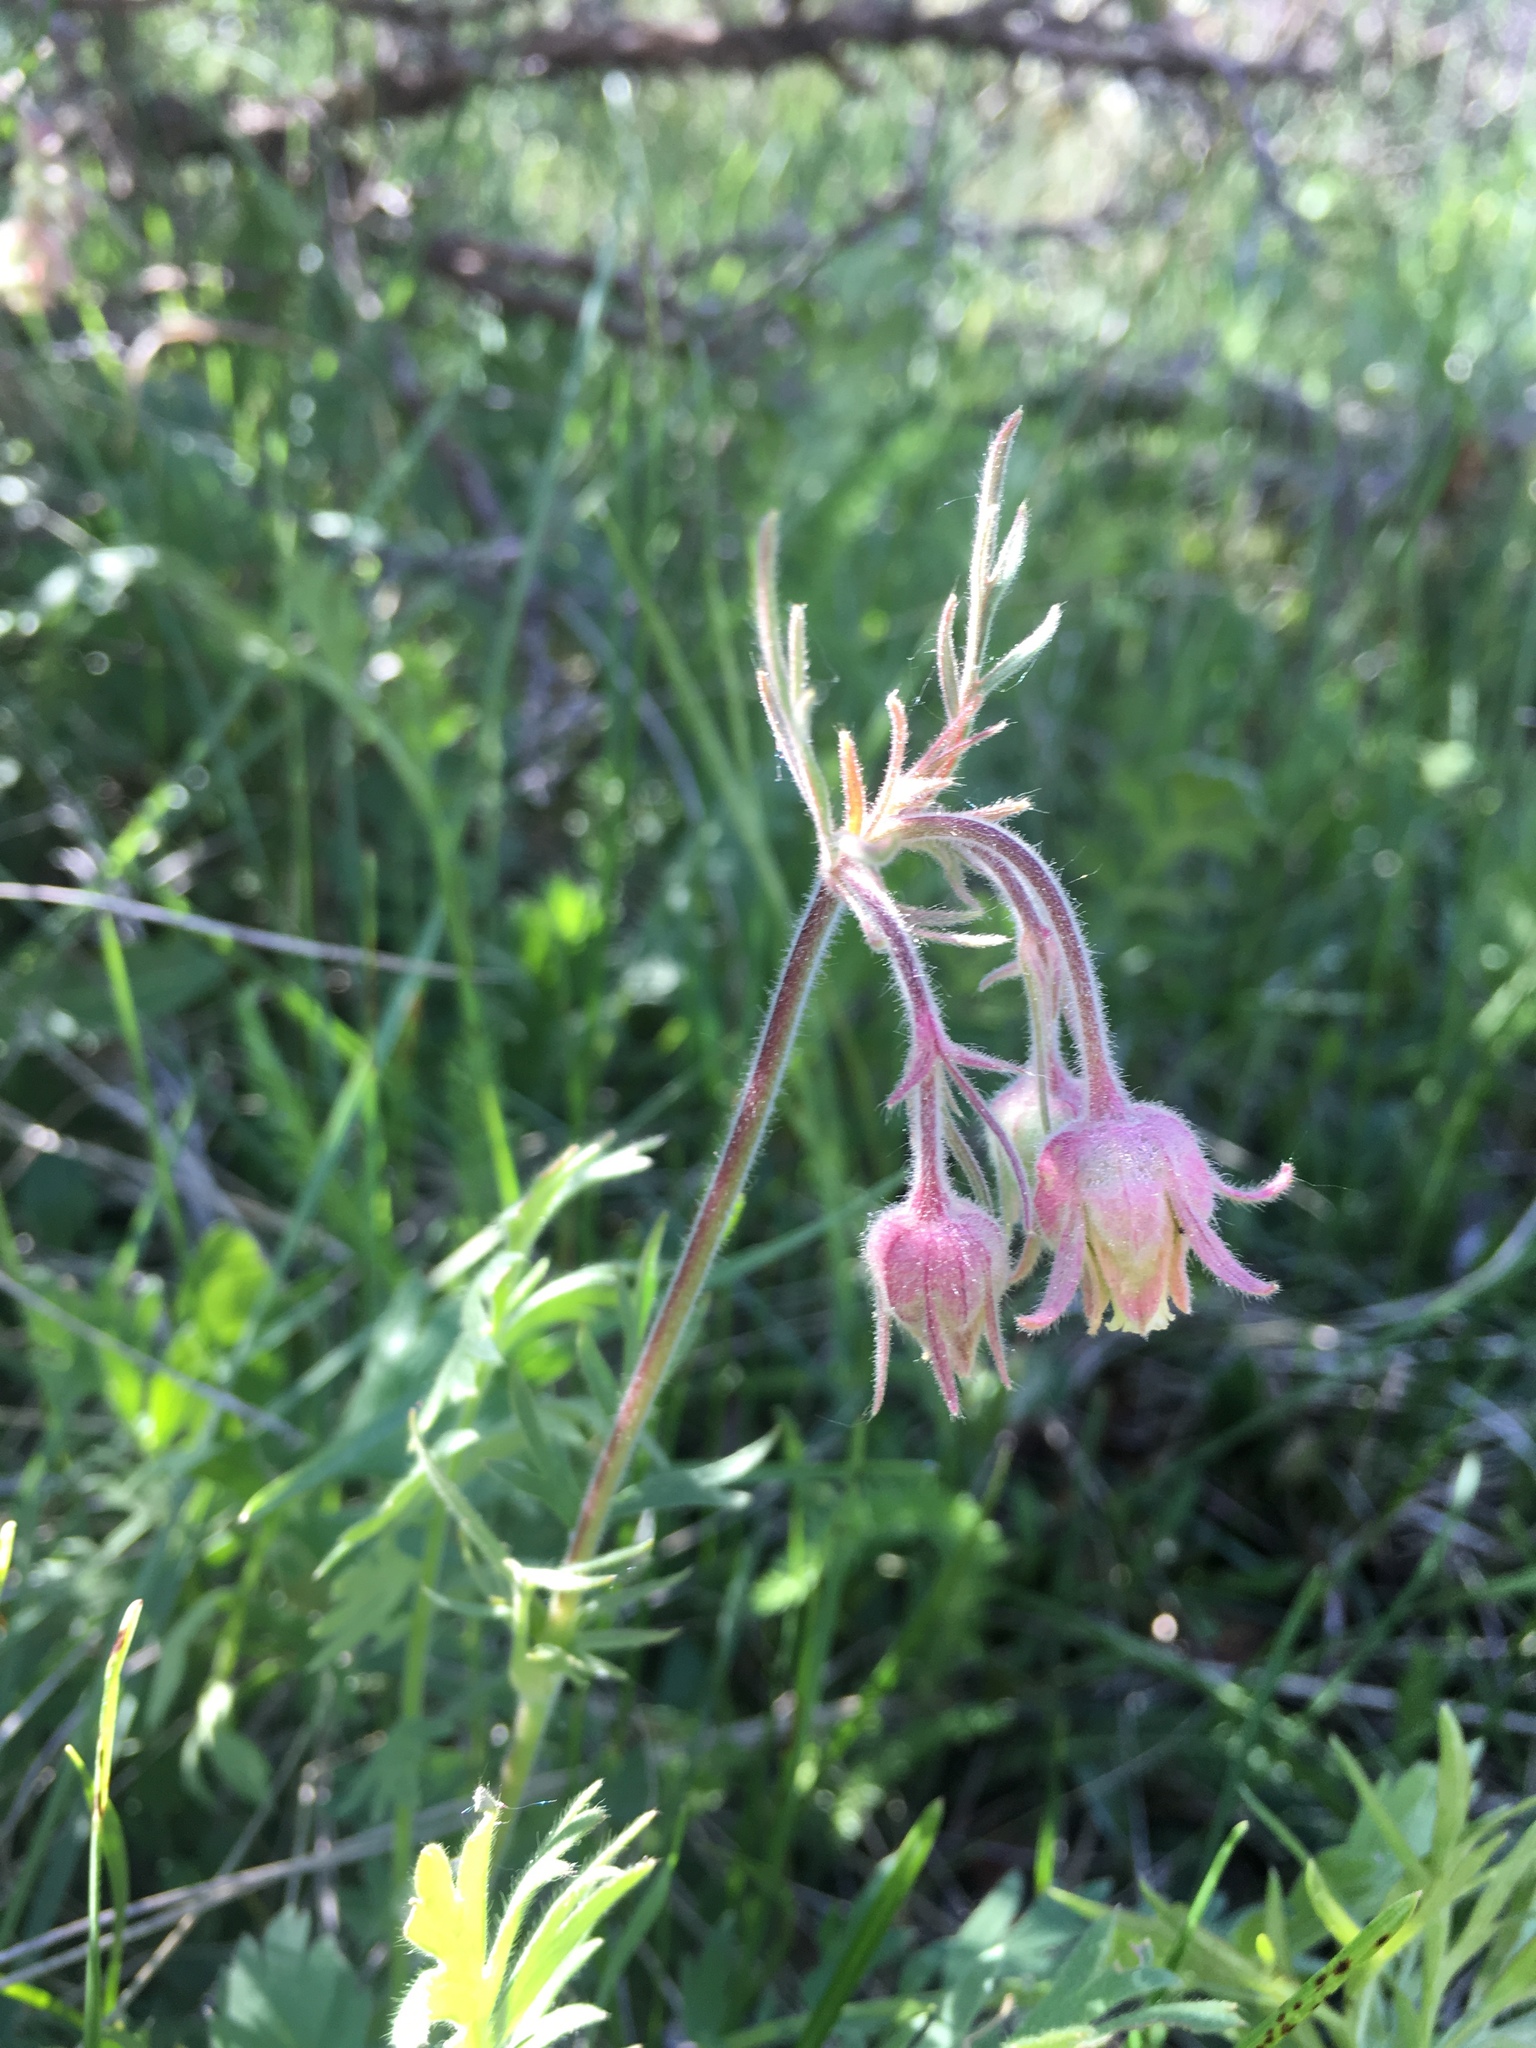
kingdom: Plantae
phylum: Tracheophyta
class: Magnoliopsida
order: Rosales
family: Rosaceae
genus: Geum
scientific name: Geum triflorum
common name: Old man's whiskers
